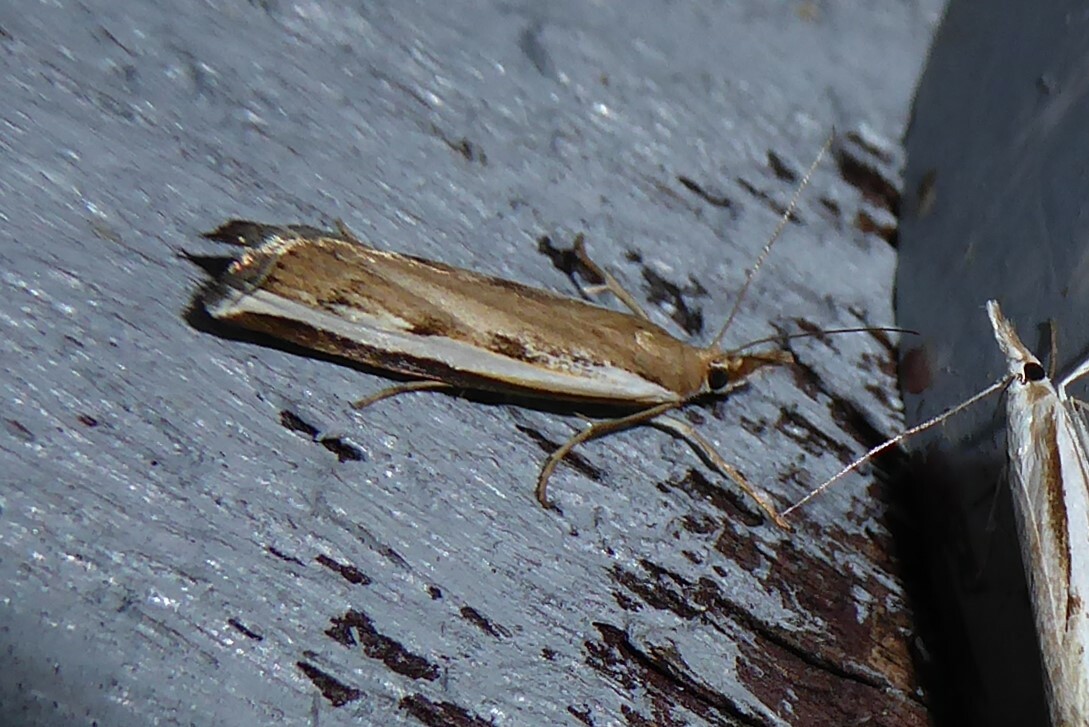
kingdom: Animalia
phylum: Arthropoda
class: Insecta
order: Lepidoptera
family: Crambidae
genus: Orocrambus
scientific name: Orocrambus flexuosellus
